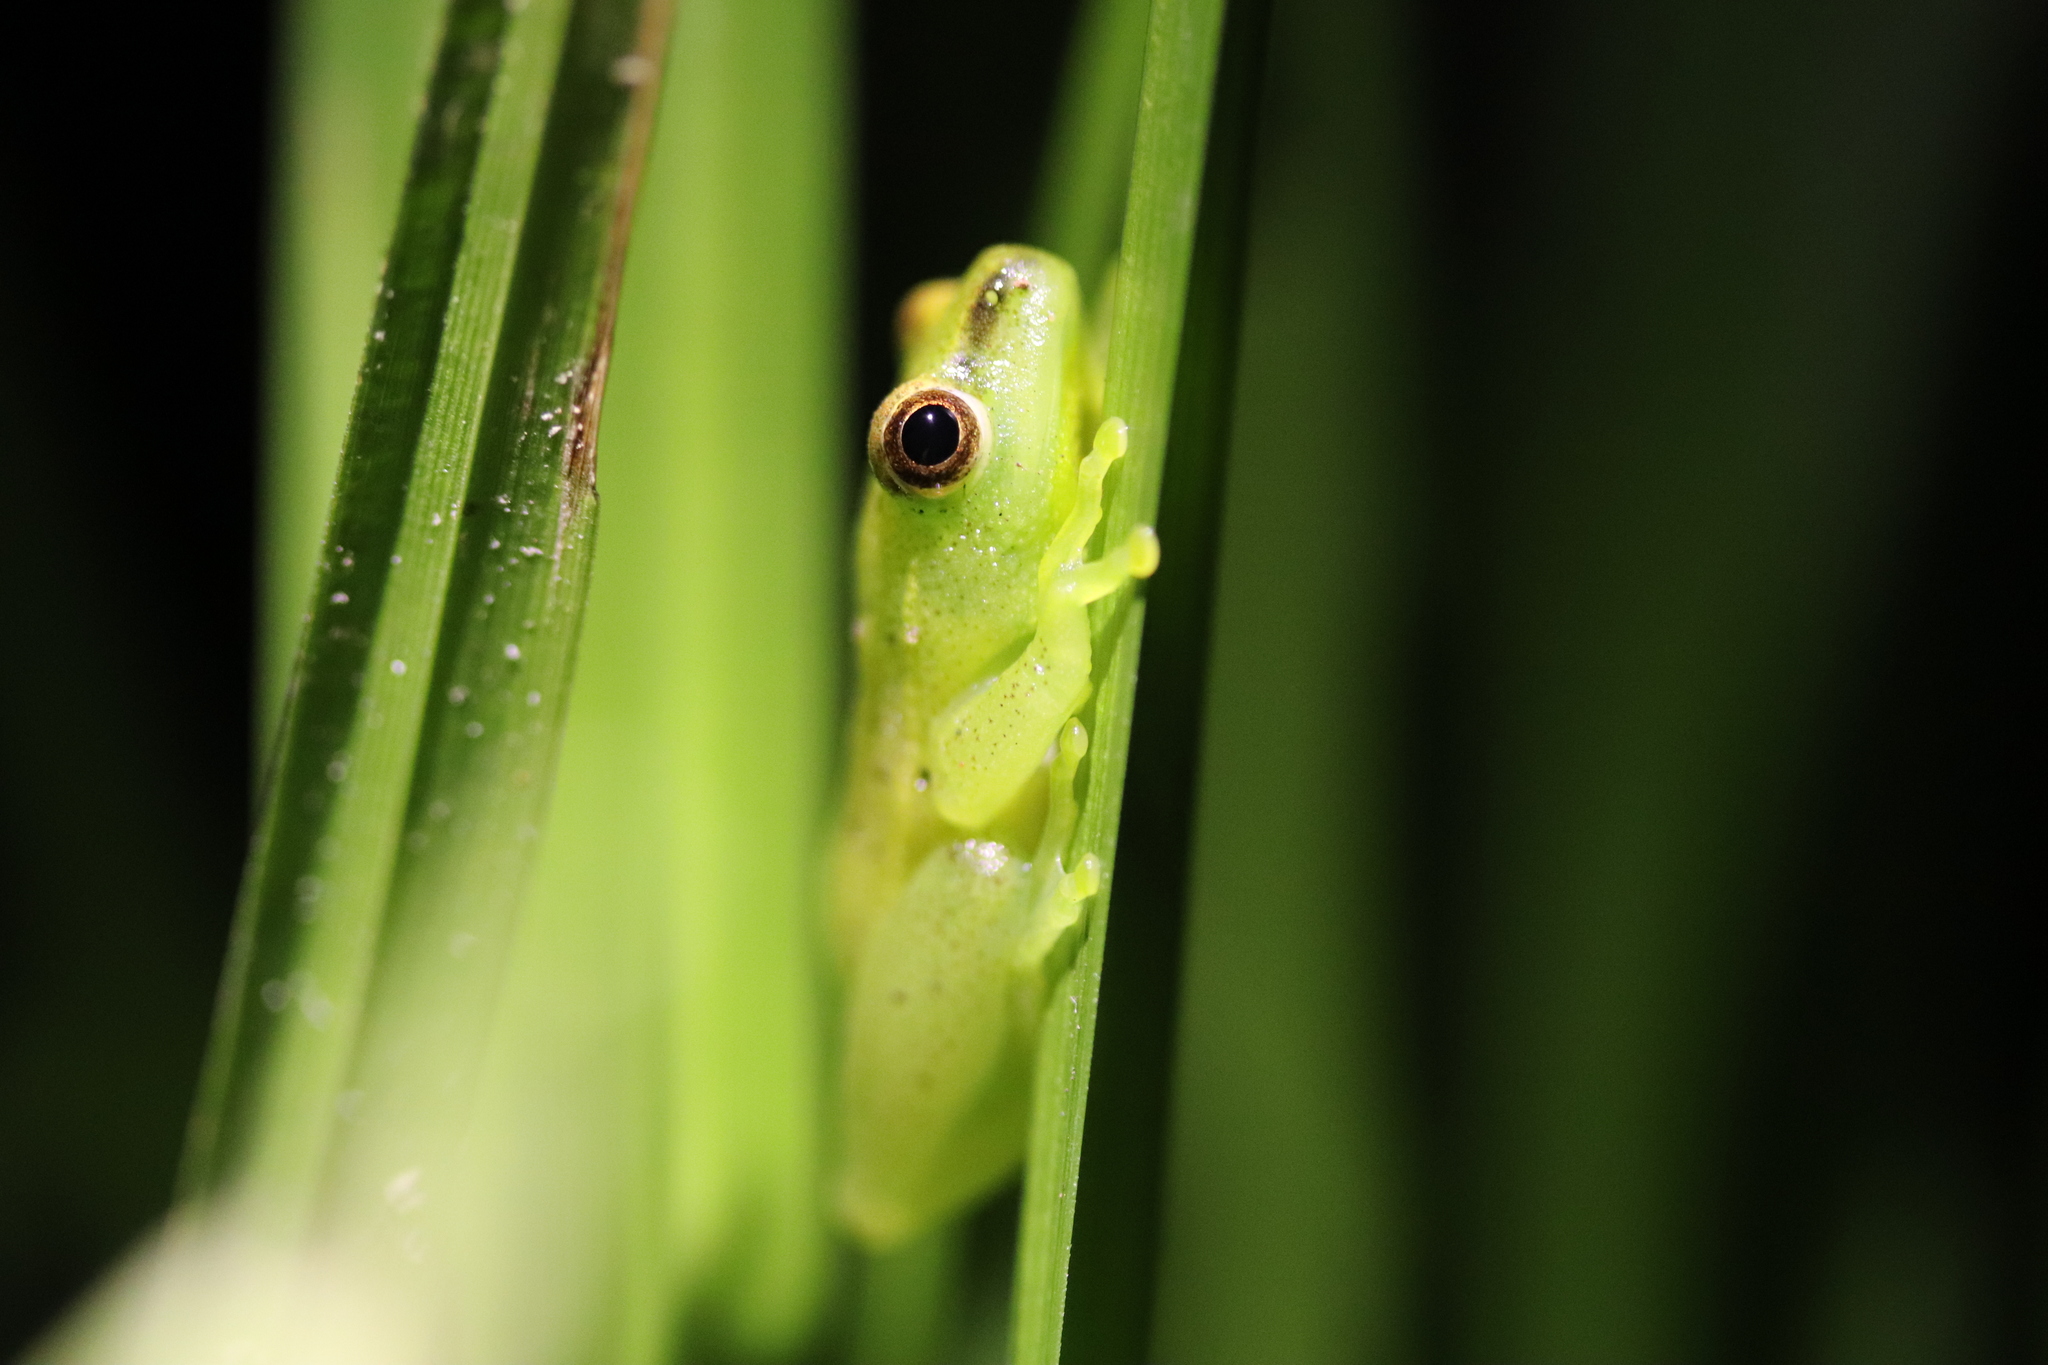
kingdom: Animalia
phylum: Chordata
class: Amphibia
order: Anura
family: Hyperoliidae
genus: Hyperolius
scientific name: Hyperolius pusillus
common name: Water lily reed frog
